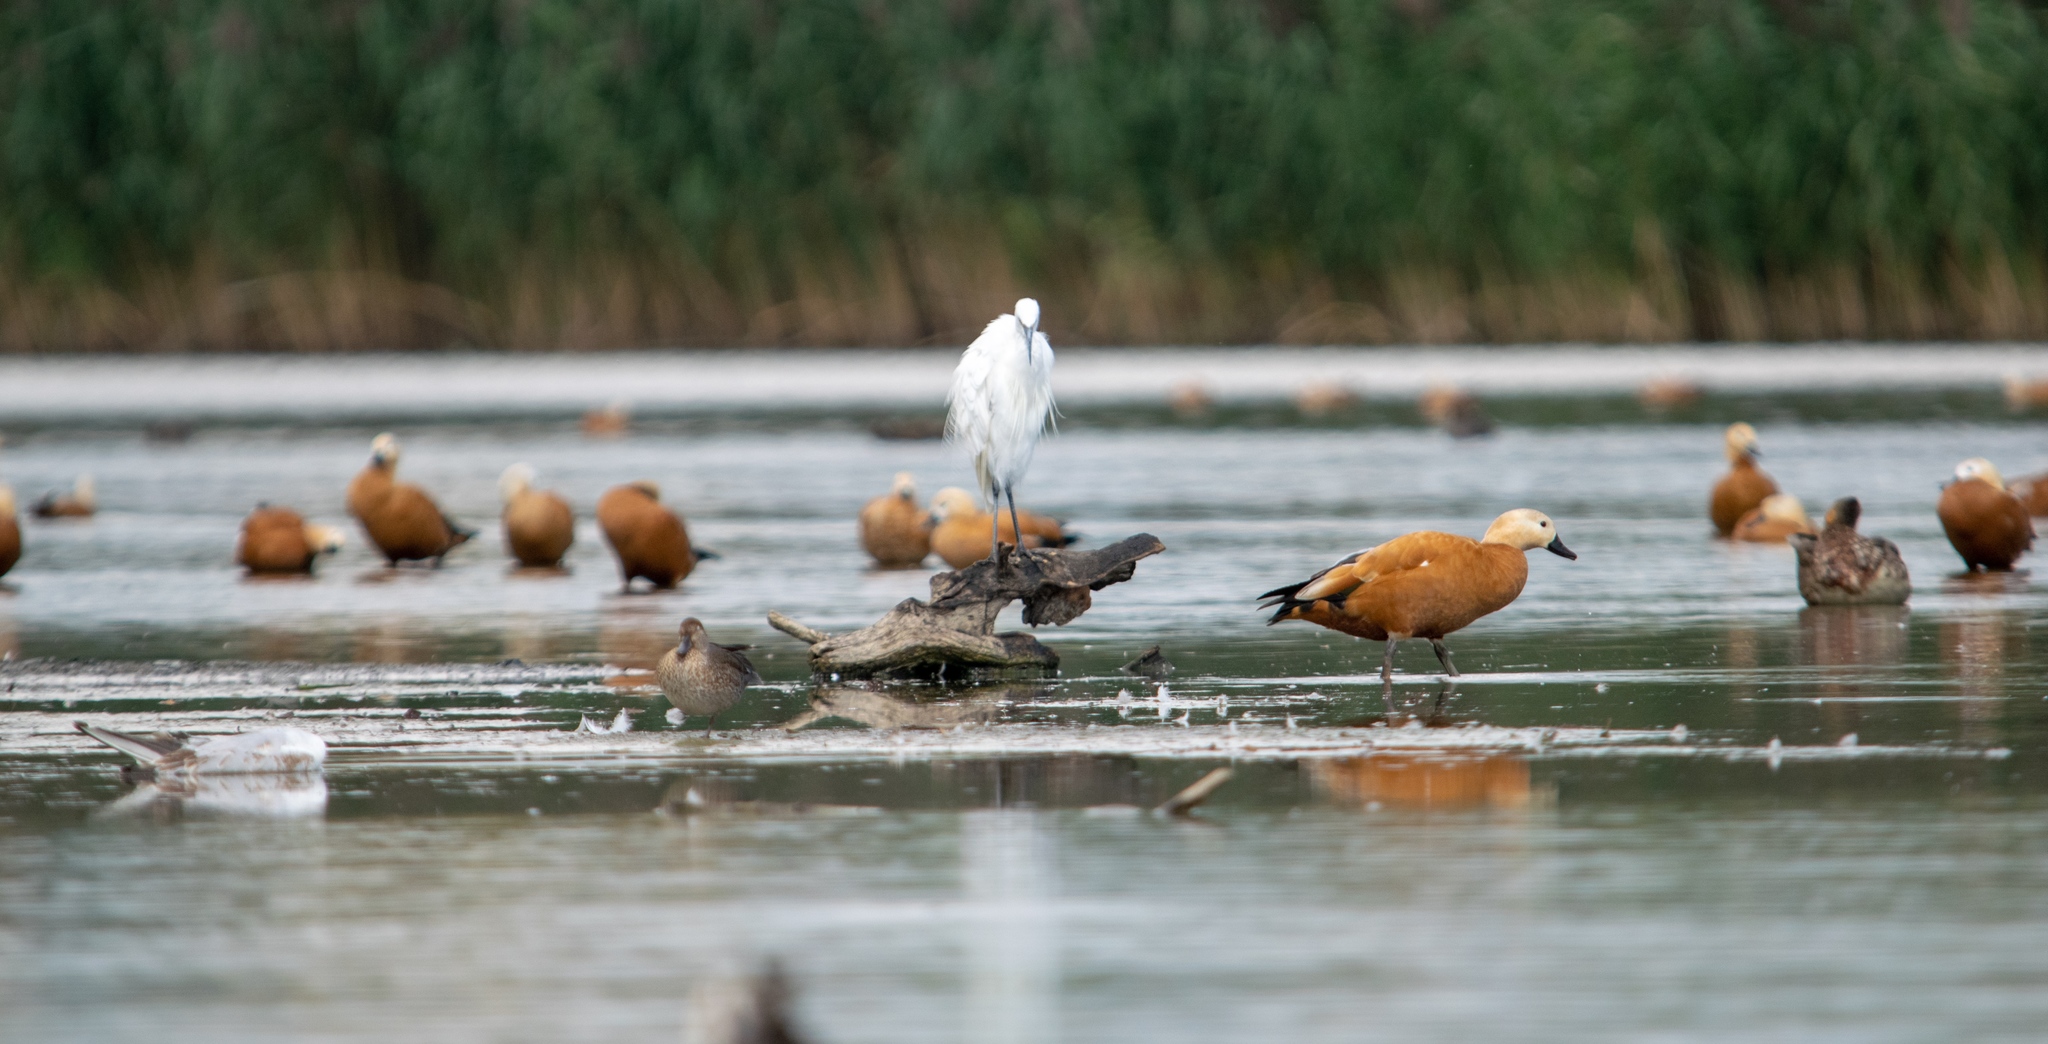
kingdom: Animalia
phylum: Chordata
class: Aves
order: Pelecaniformes
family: Ardeidae
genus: Egretta
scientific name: Egretta garzetta
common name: Little egret
